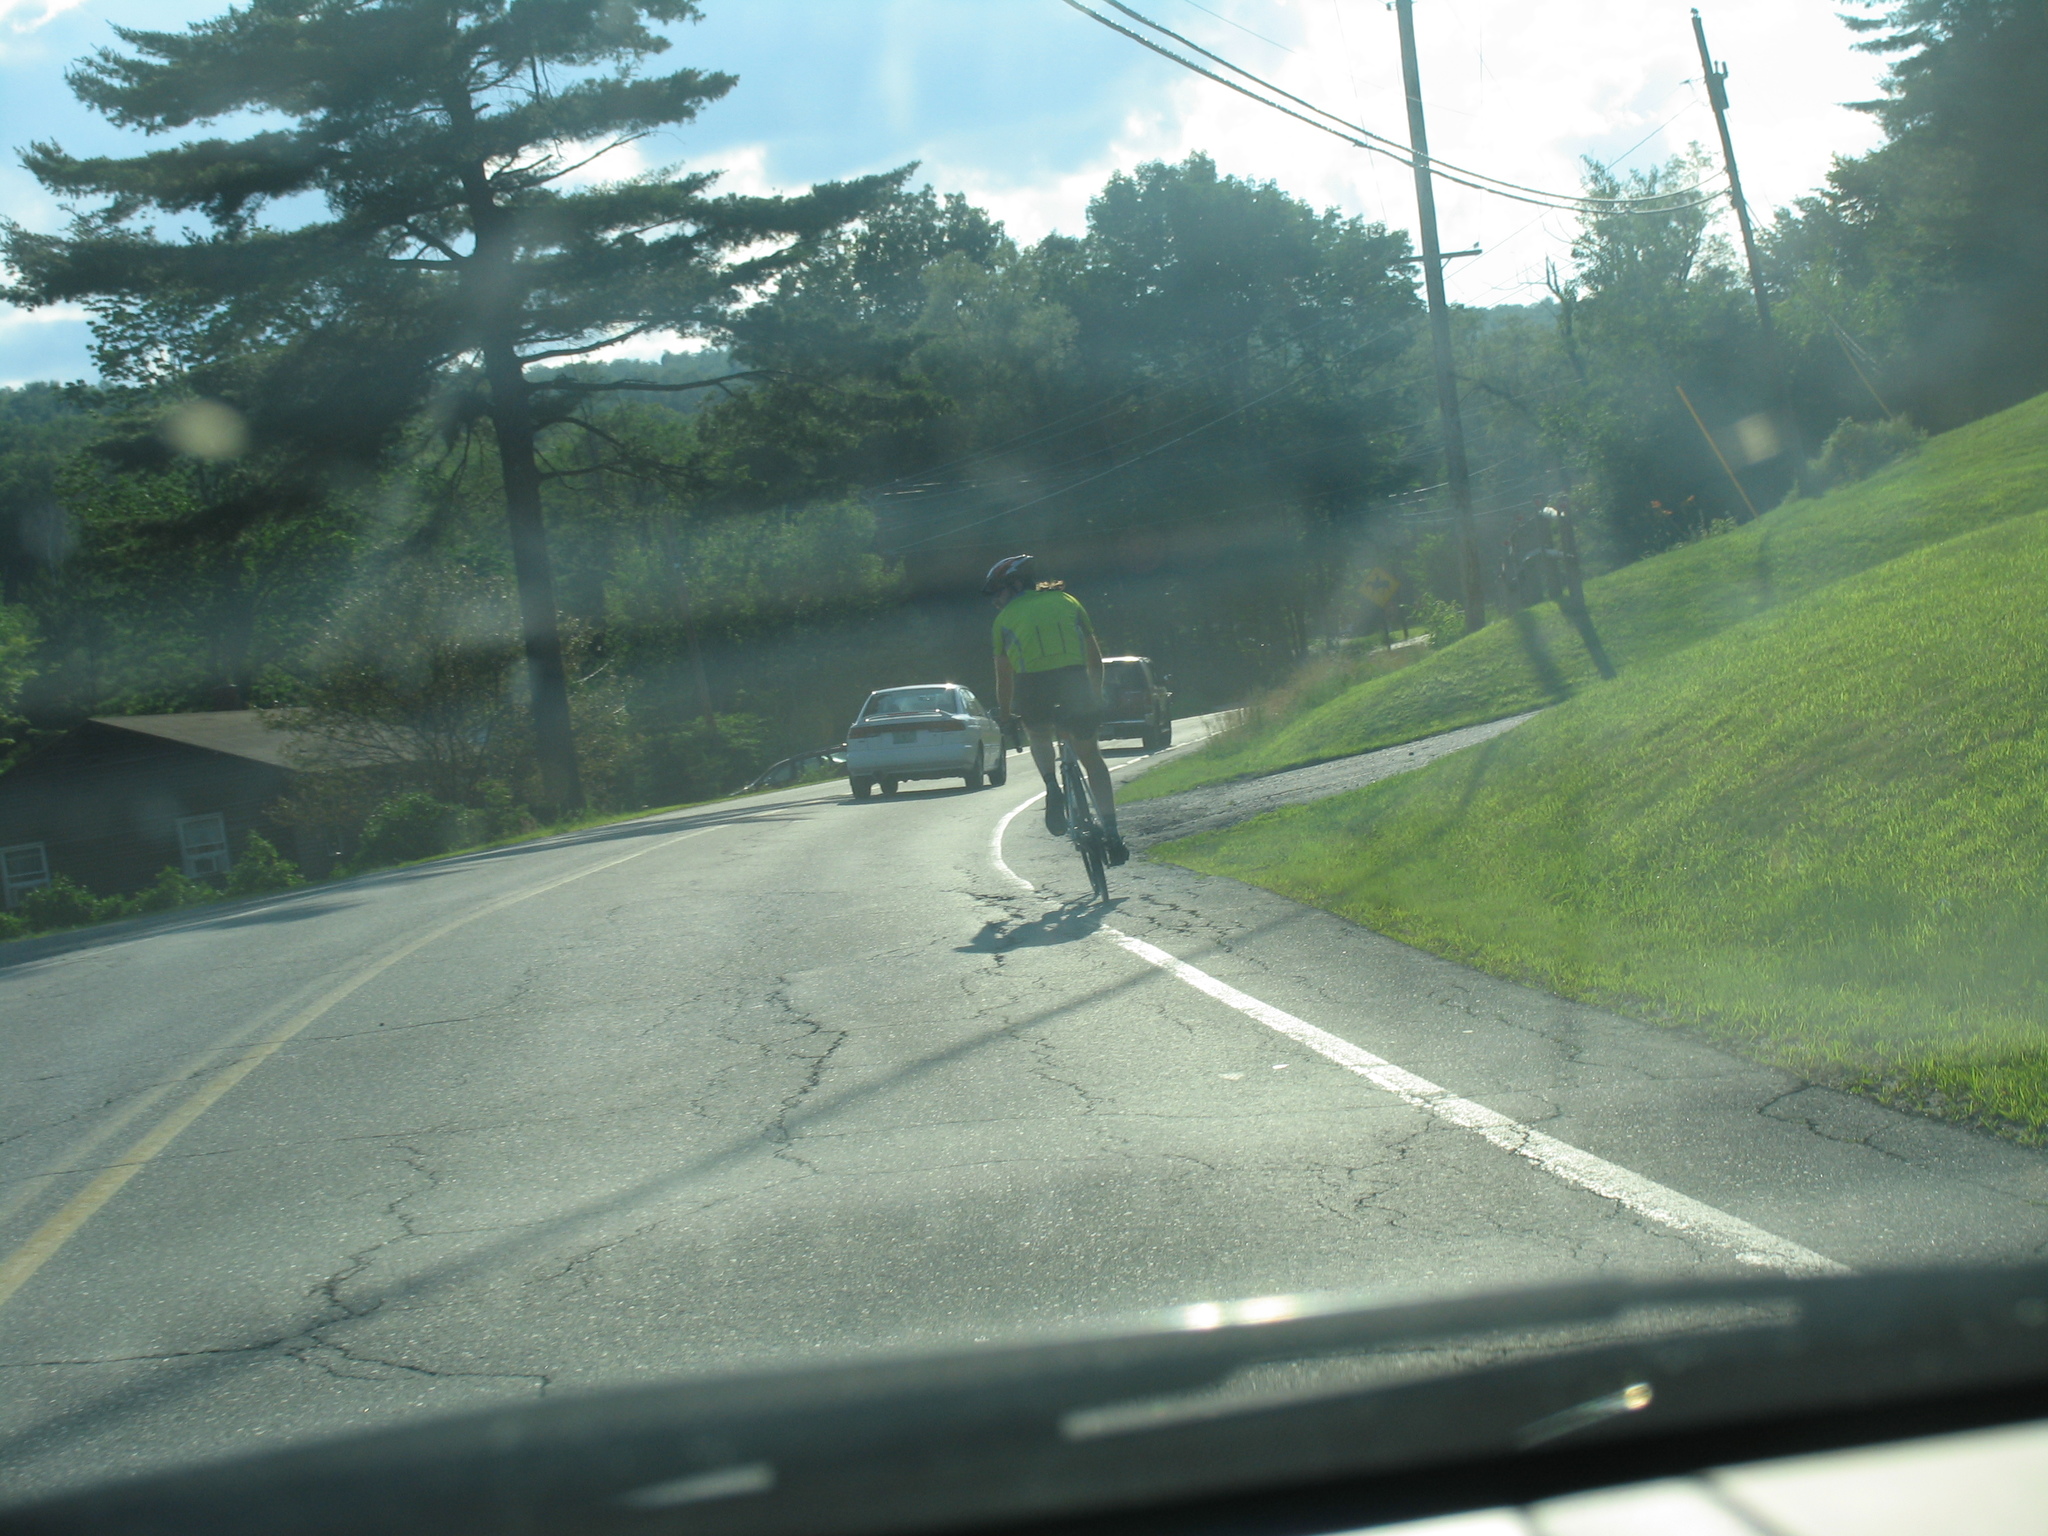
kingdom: Plantae
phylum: Tracheophyta
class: Pinopsida
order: Pinales
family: Pinaceae
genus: Pinus
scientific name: Pinus strobus
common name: Weymouth pine
